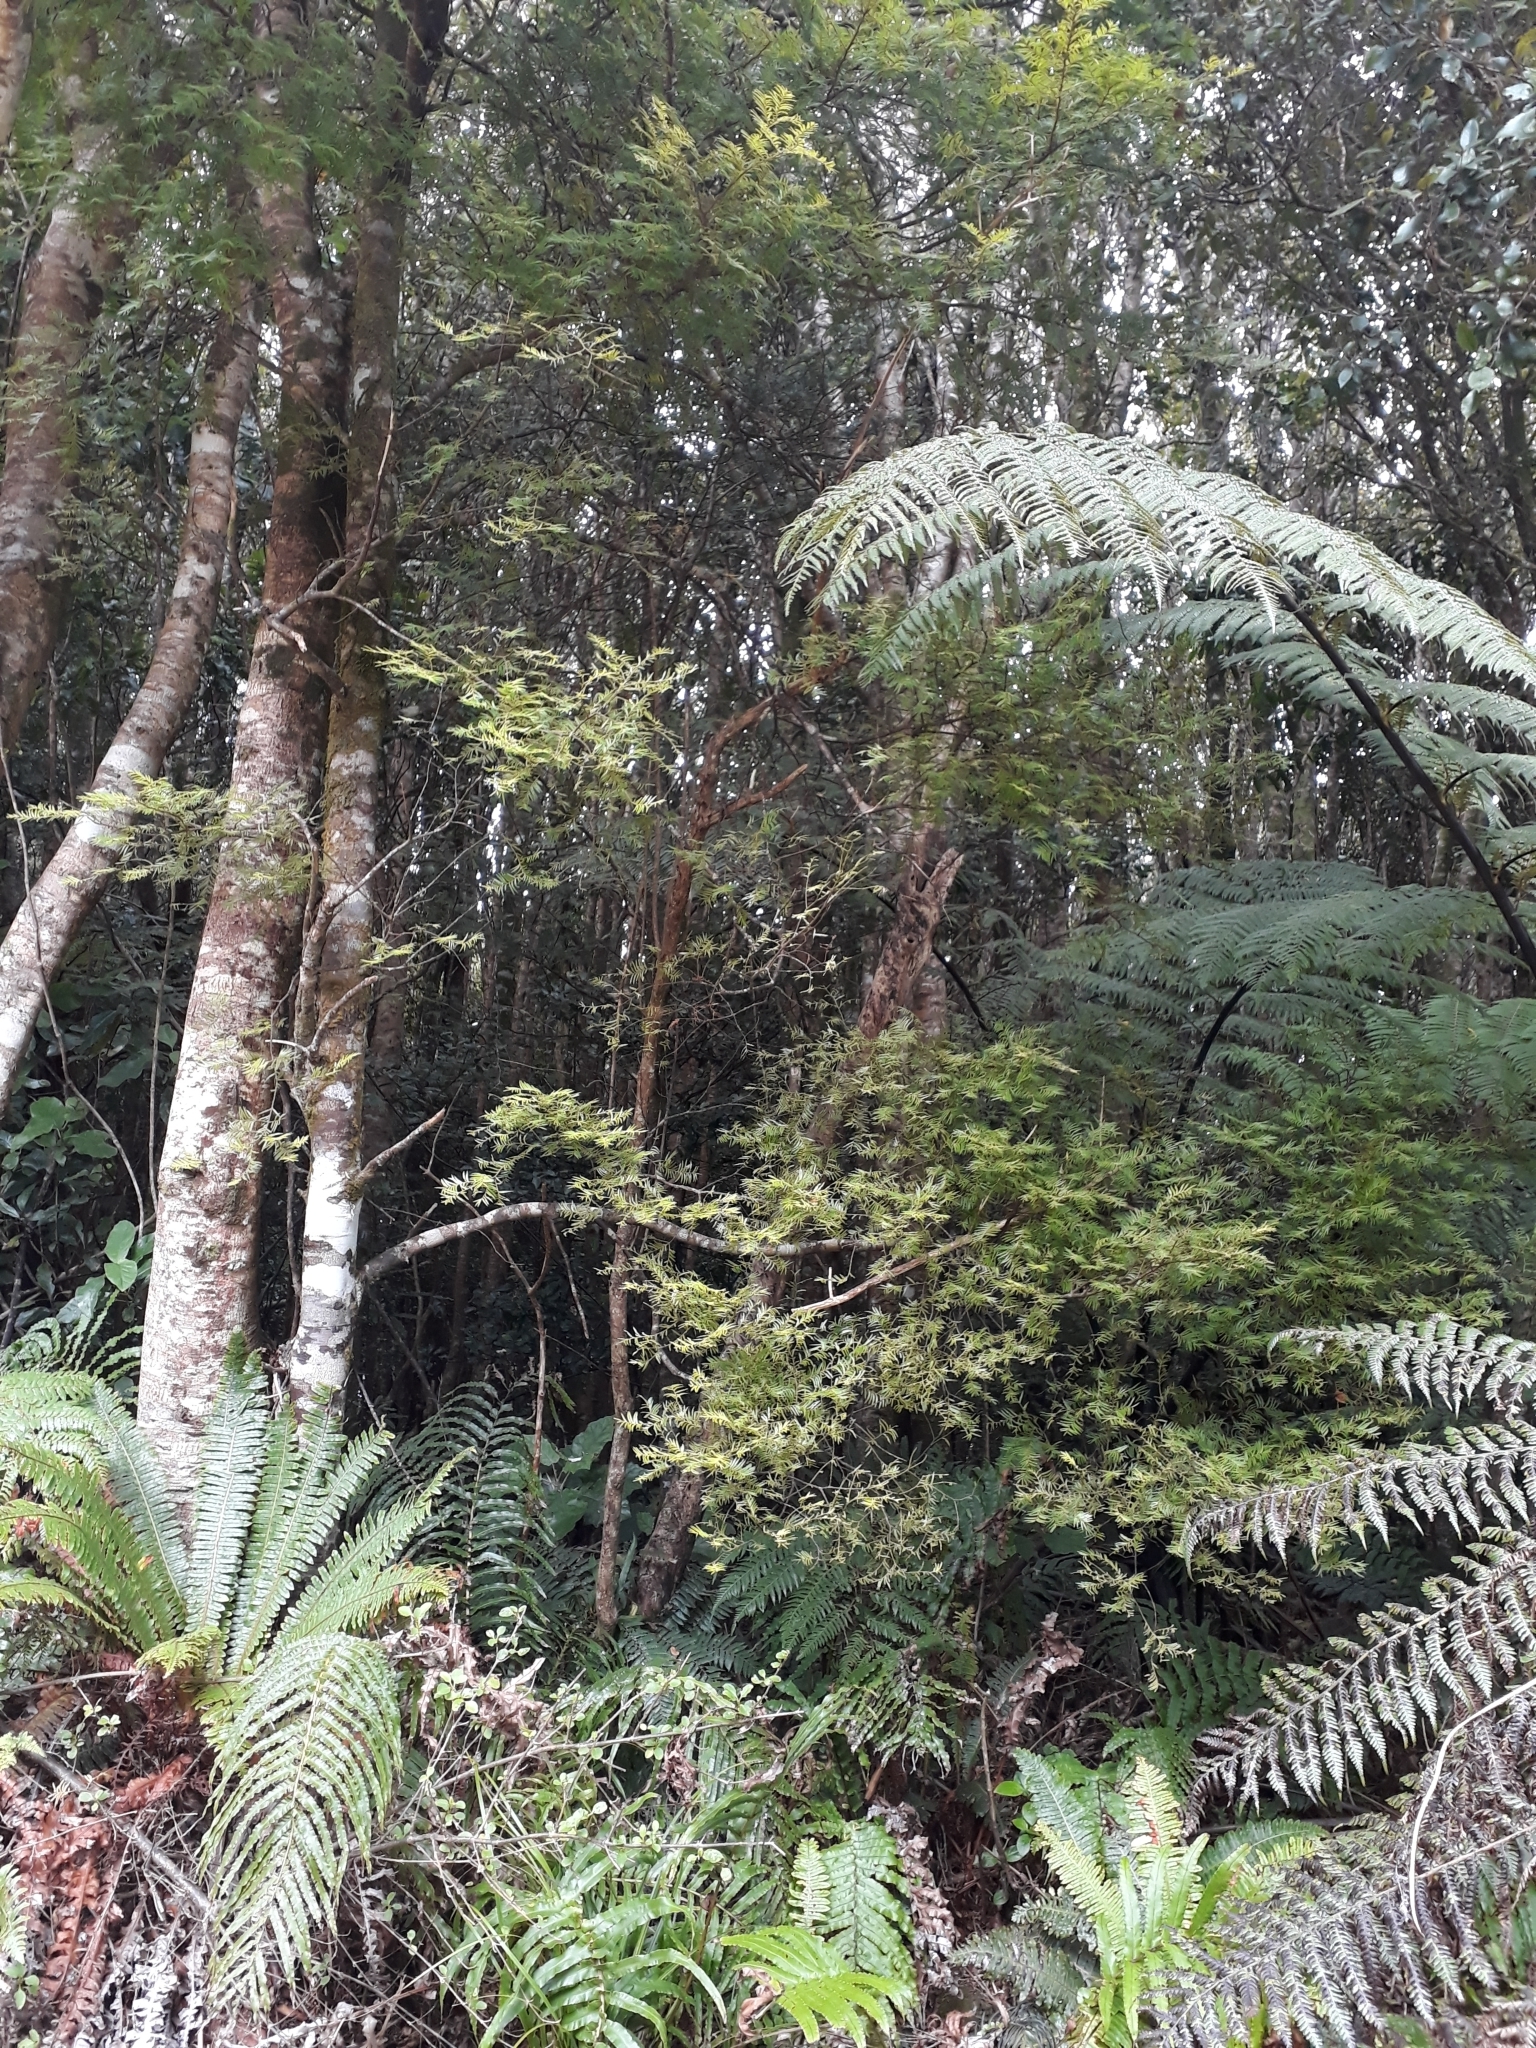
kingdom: Plantae
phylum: Tracheophyta
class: Pinopsida
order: Pinales
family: Podocarpaceae
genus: Prumnopitys
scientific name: Prumnopitys ferruginea
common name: Brown pine
